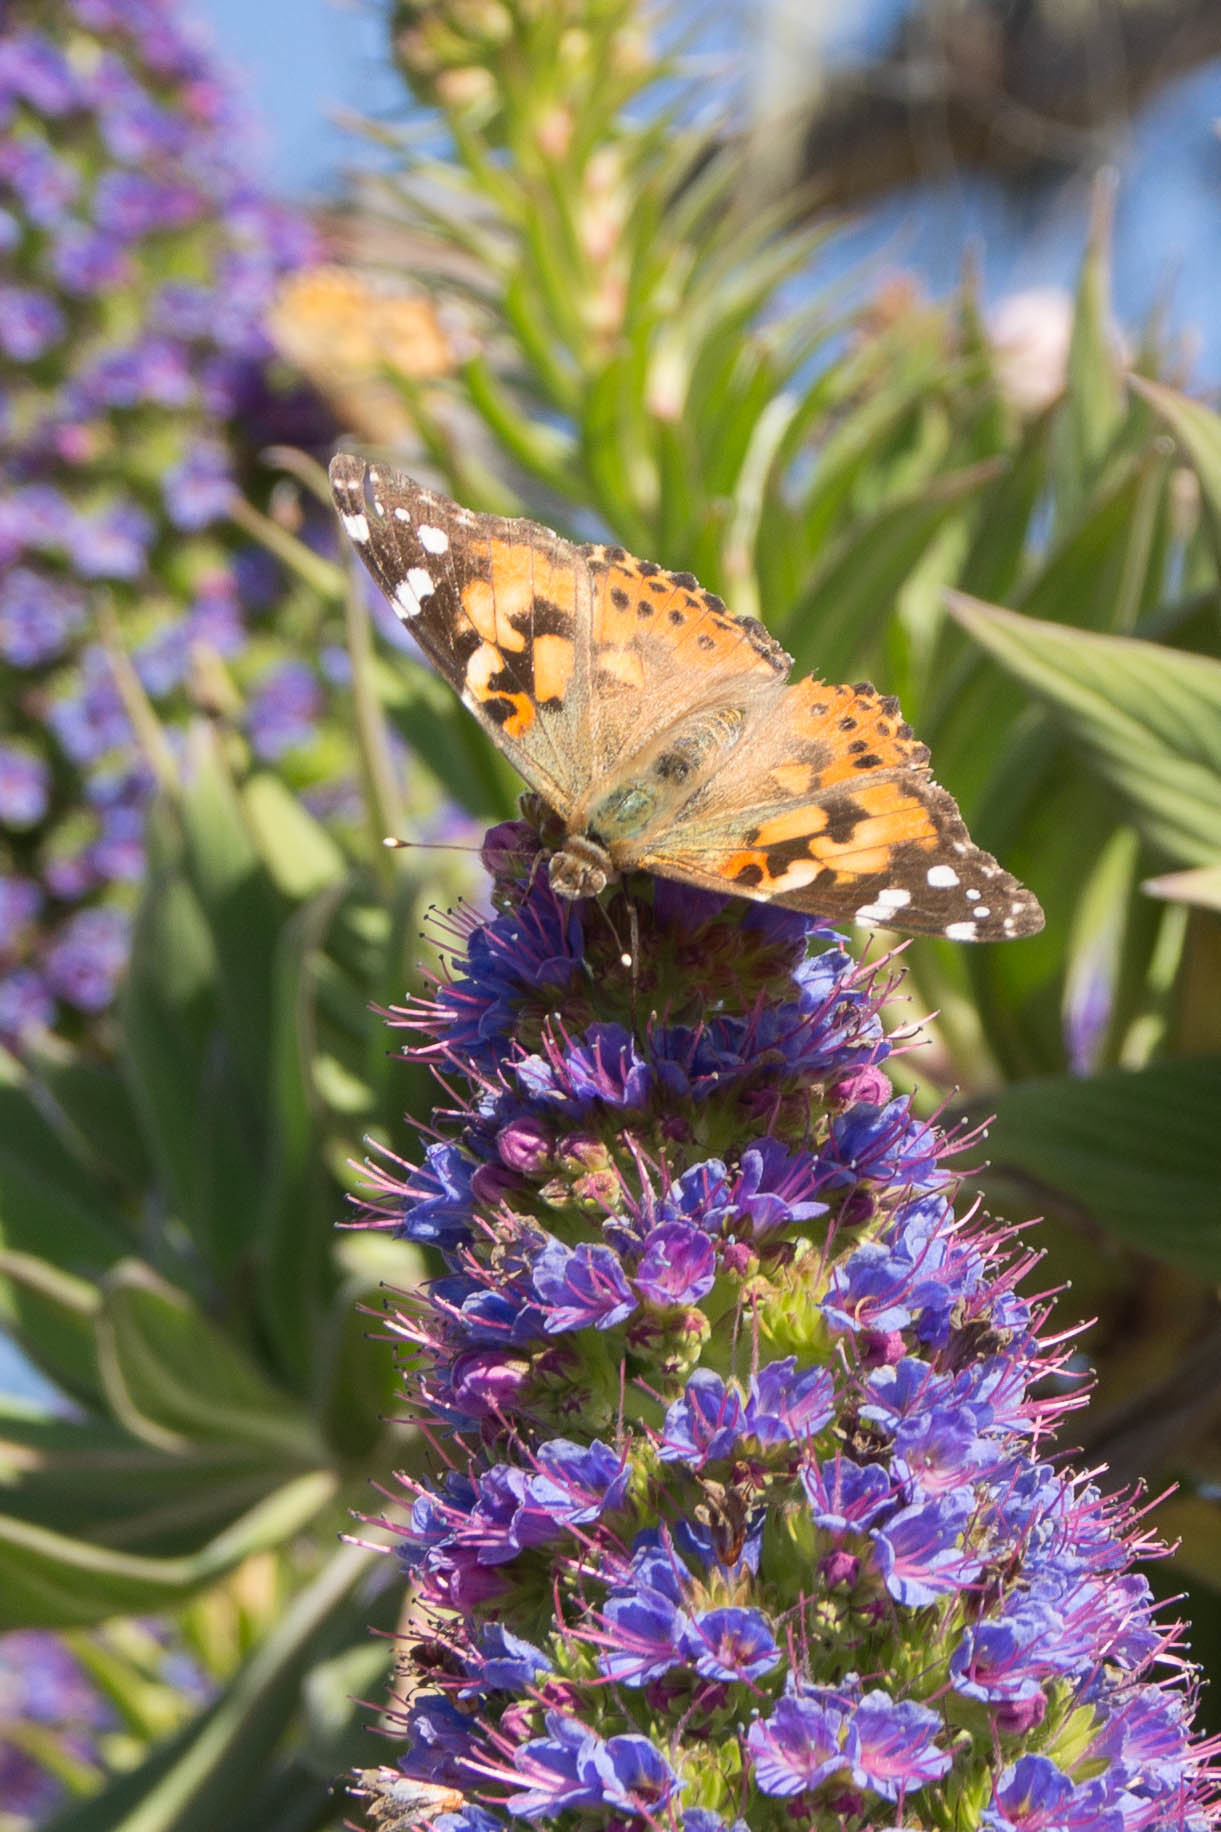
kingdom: Animalia
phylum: Arthropoda
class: Insecta
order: Lepidoptera
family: Nymphalidae
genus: Vanessa
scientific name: Vanessa cardui
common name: Painted lady
